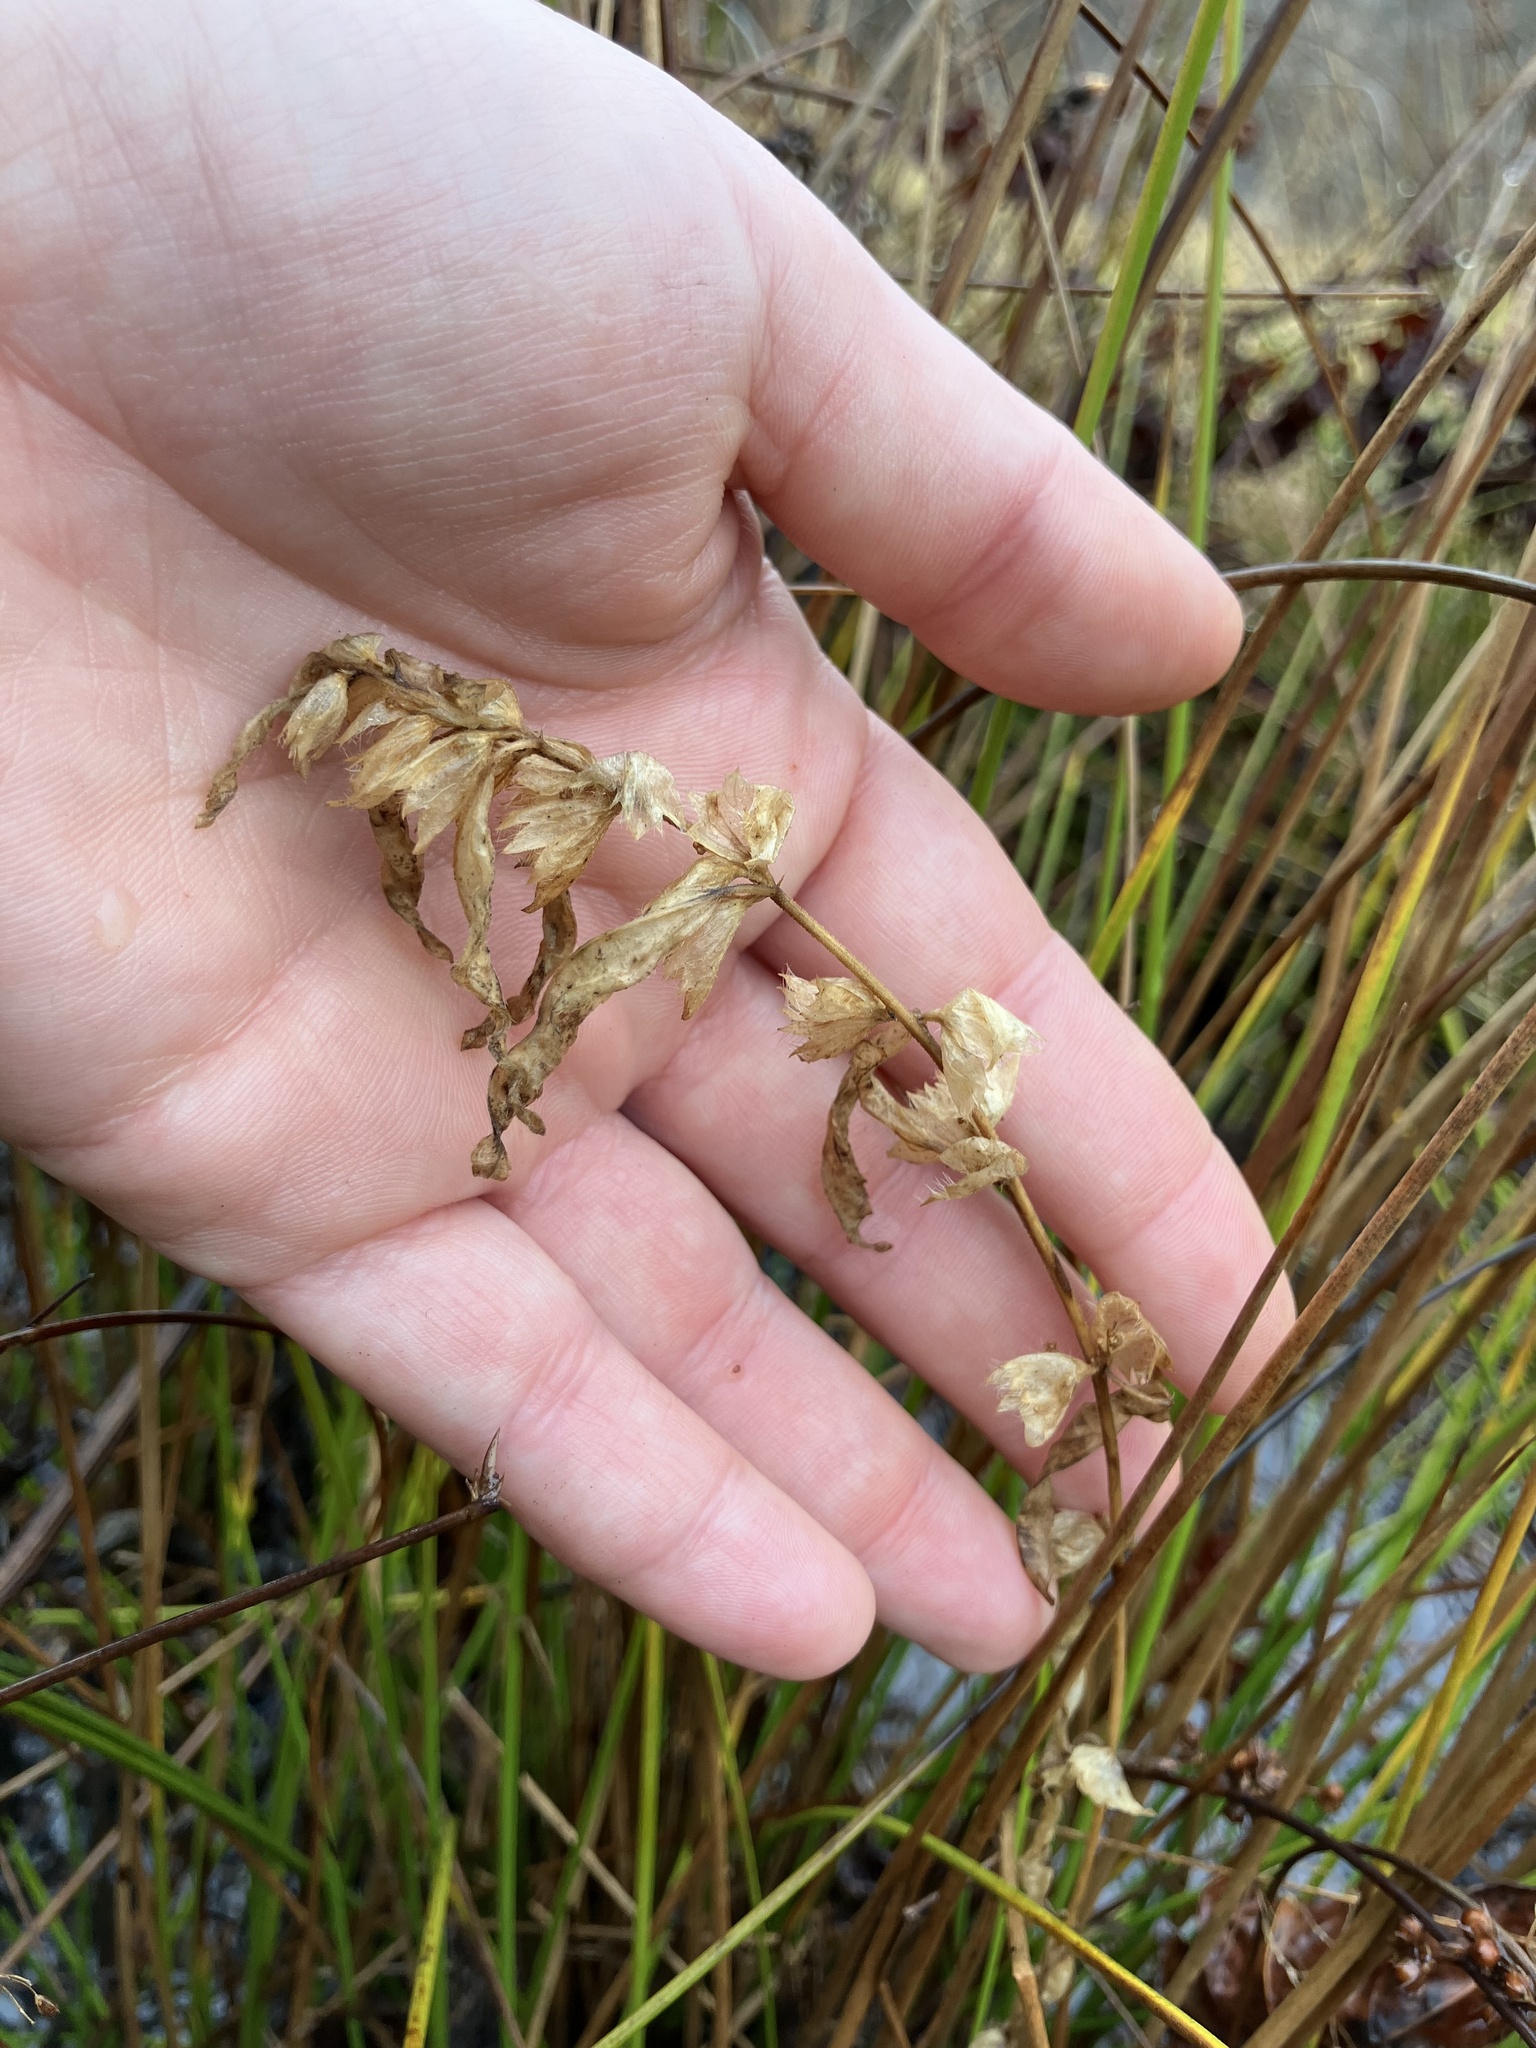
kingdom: Plantae
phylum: Tracheophyta
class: Magnoliopsida
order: Malpighiales
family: Euphorbiaceae
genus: Acalypha
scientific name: Acalypha rhomboidea
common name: Rhombic copperleaf
